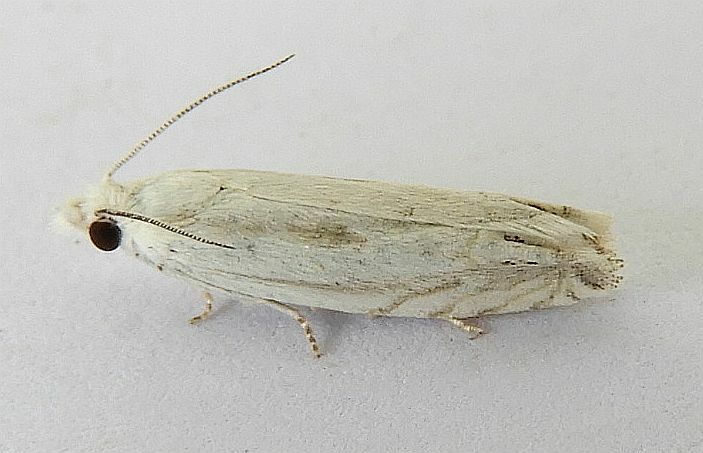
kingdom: Animalia
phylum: Arthropoda
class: Insecta
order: Lepidoptera
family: Tortricidae
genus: Eucosma
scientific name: Eucosma pallidicostana
